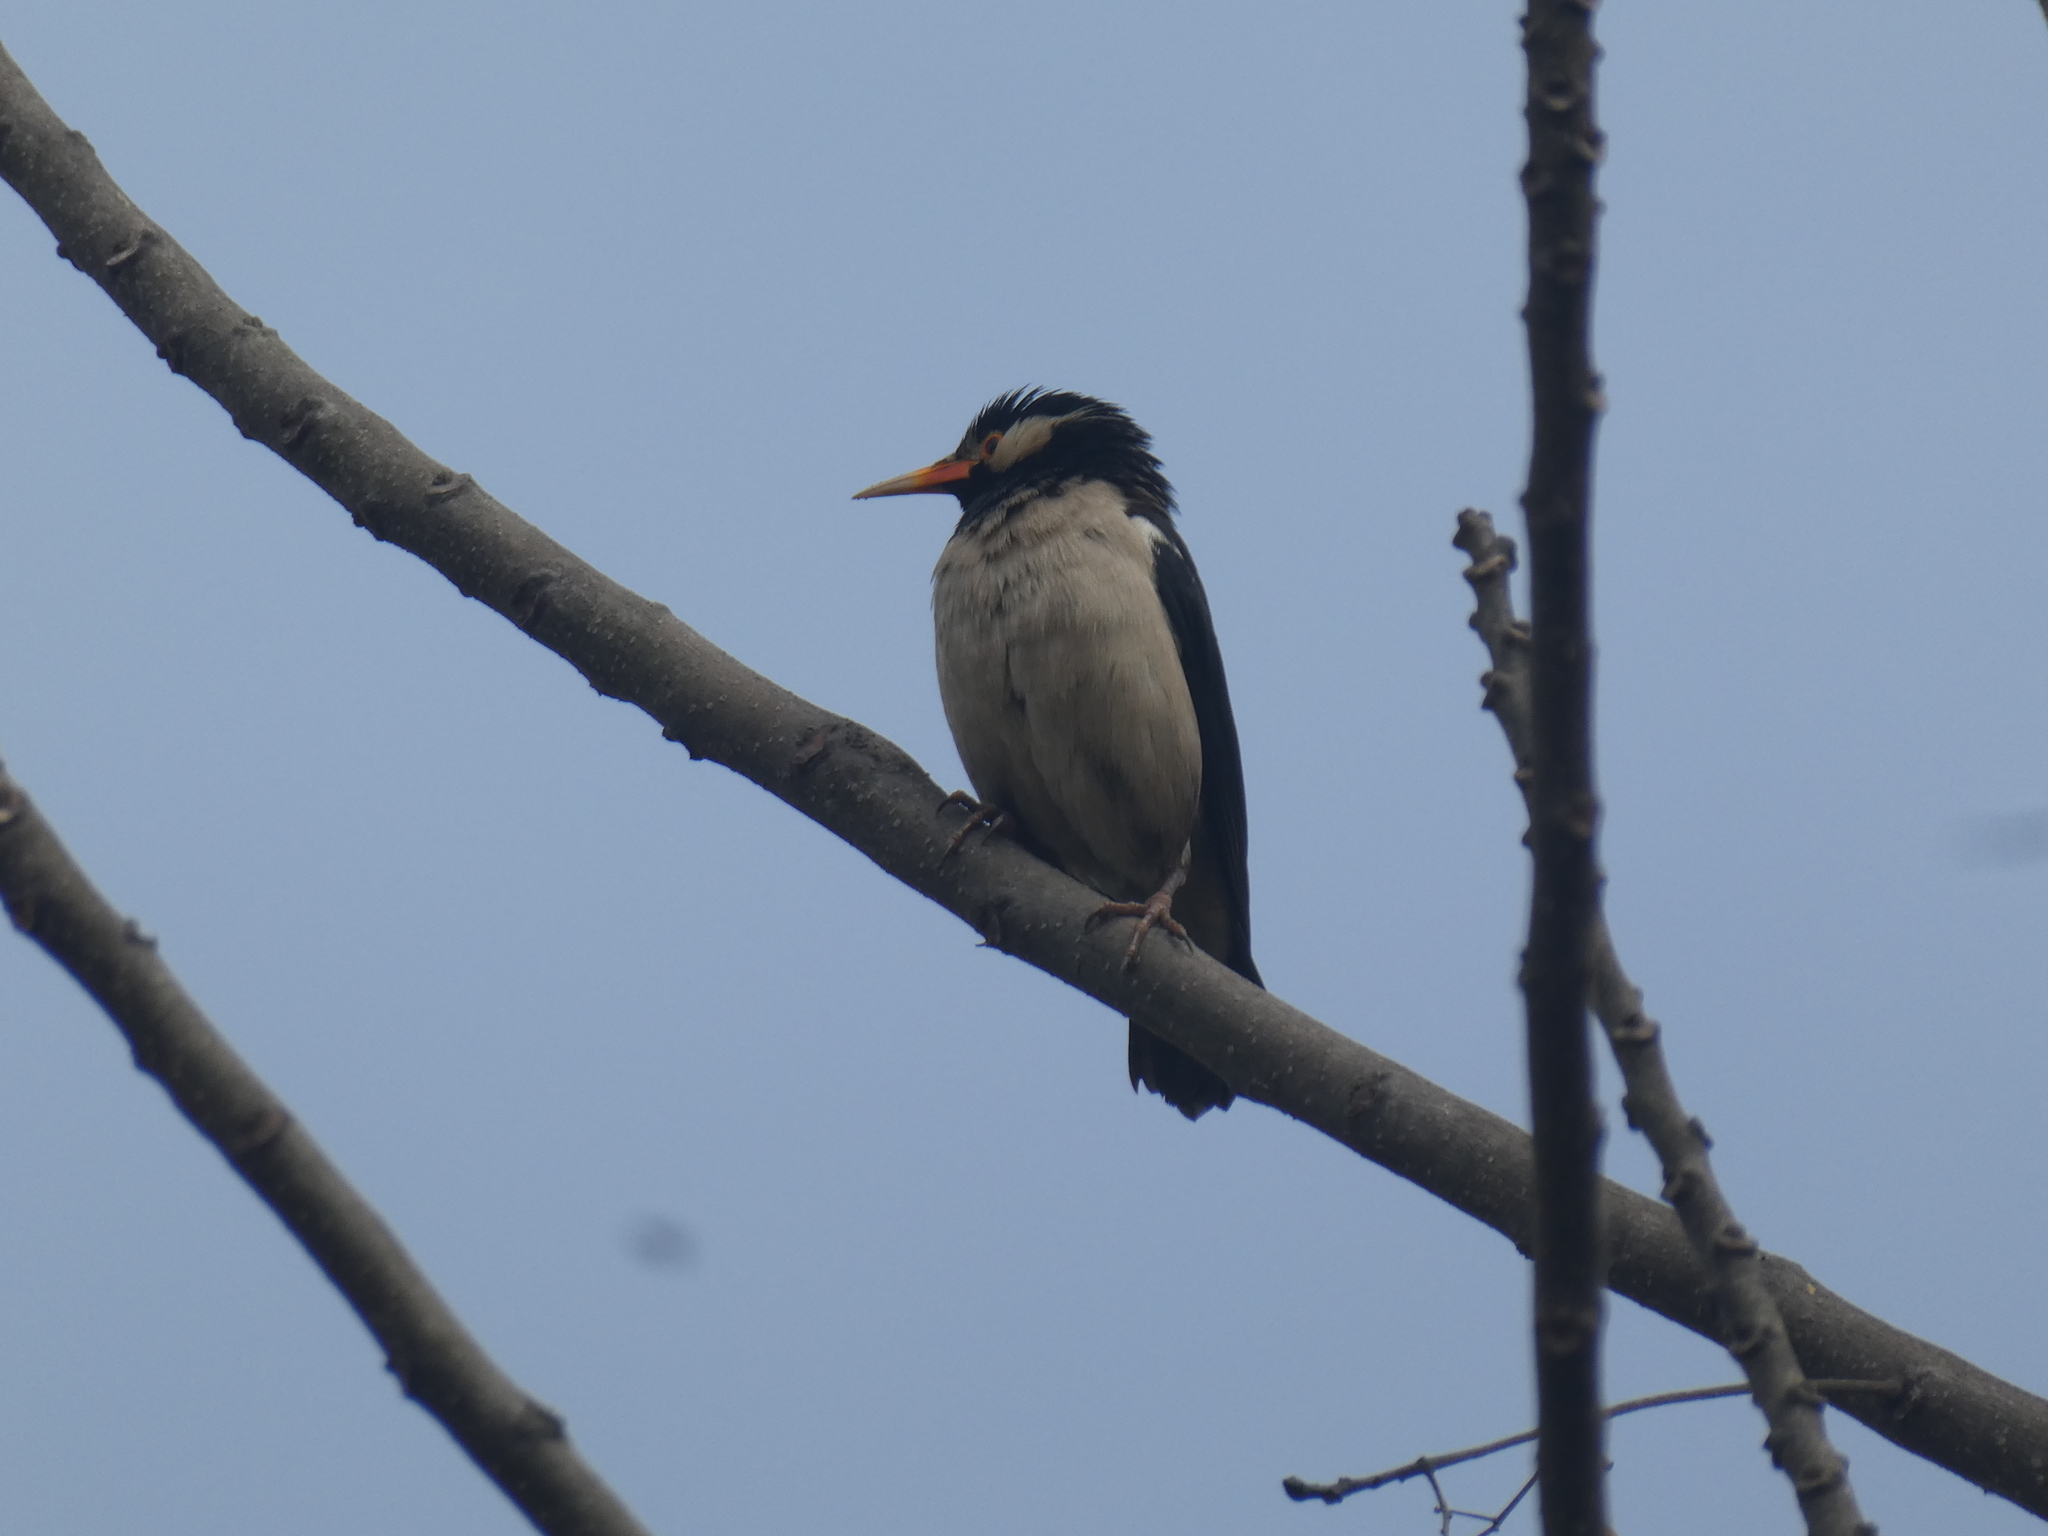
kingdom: Animalia
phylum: Chordata
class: Aves
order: Passeriformes
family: Sturnidae
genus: Gracupica
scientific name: Gracupica contra
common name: Pied myna
